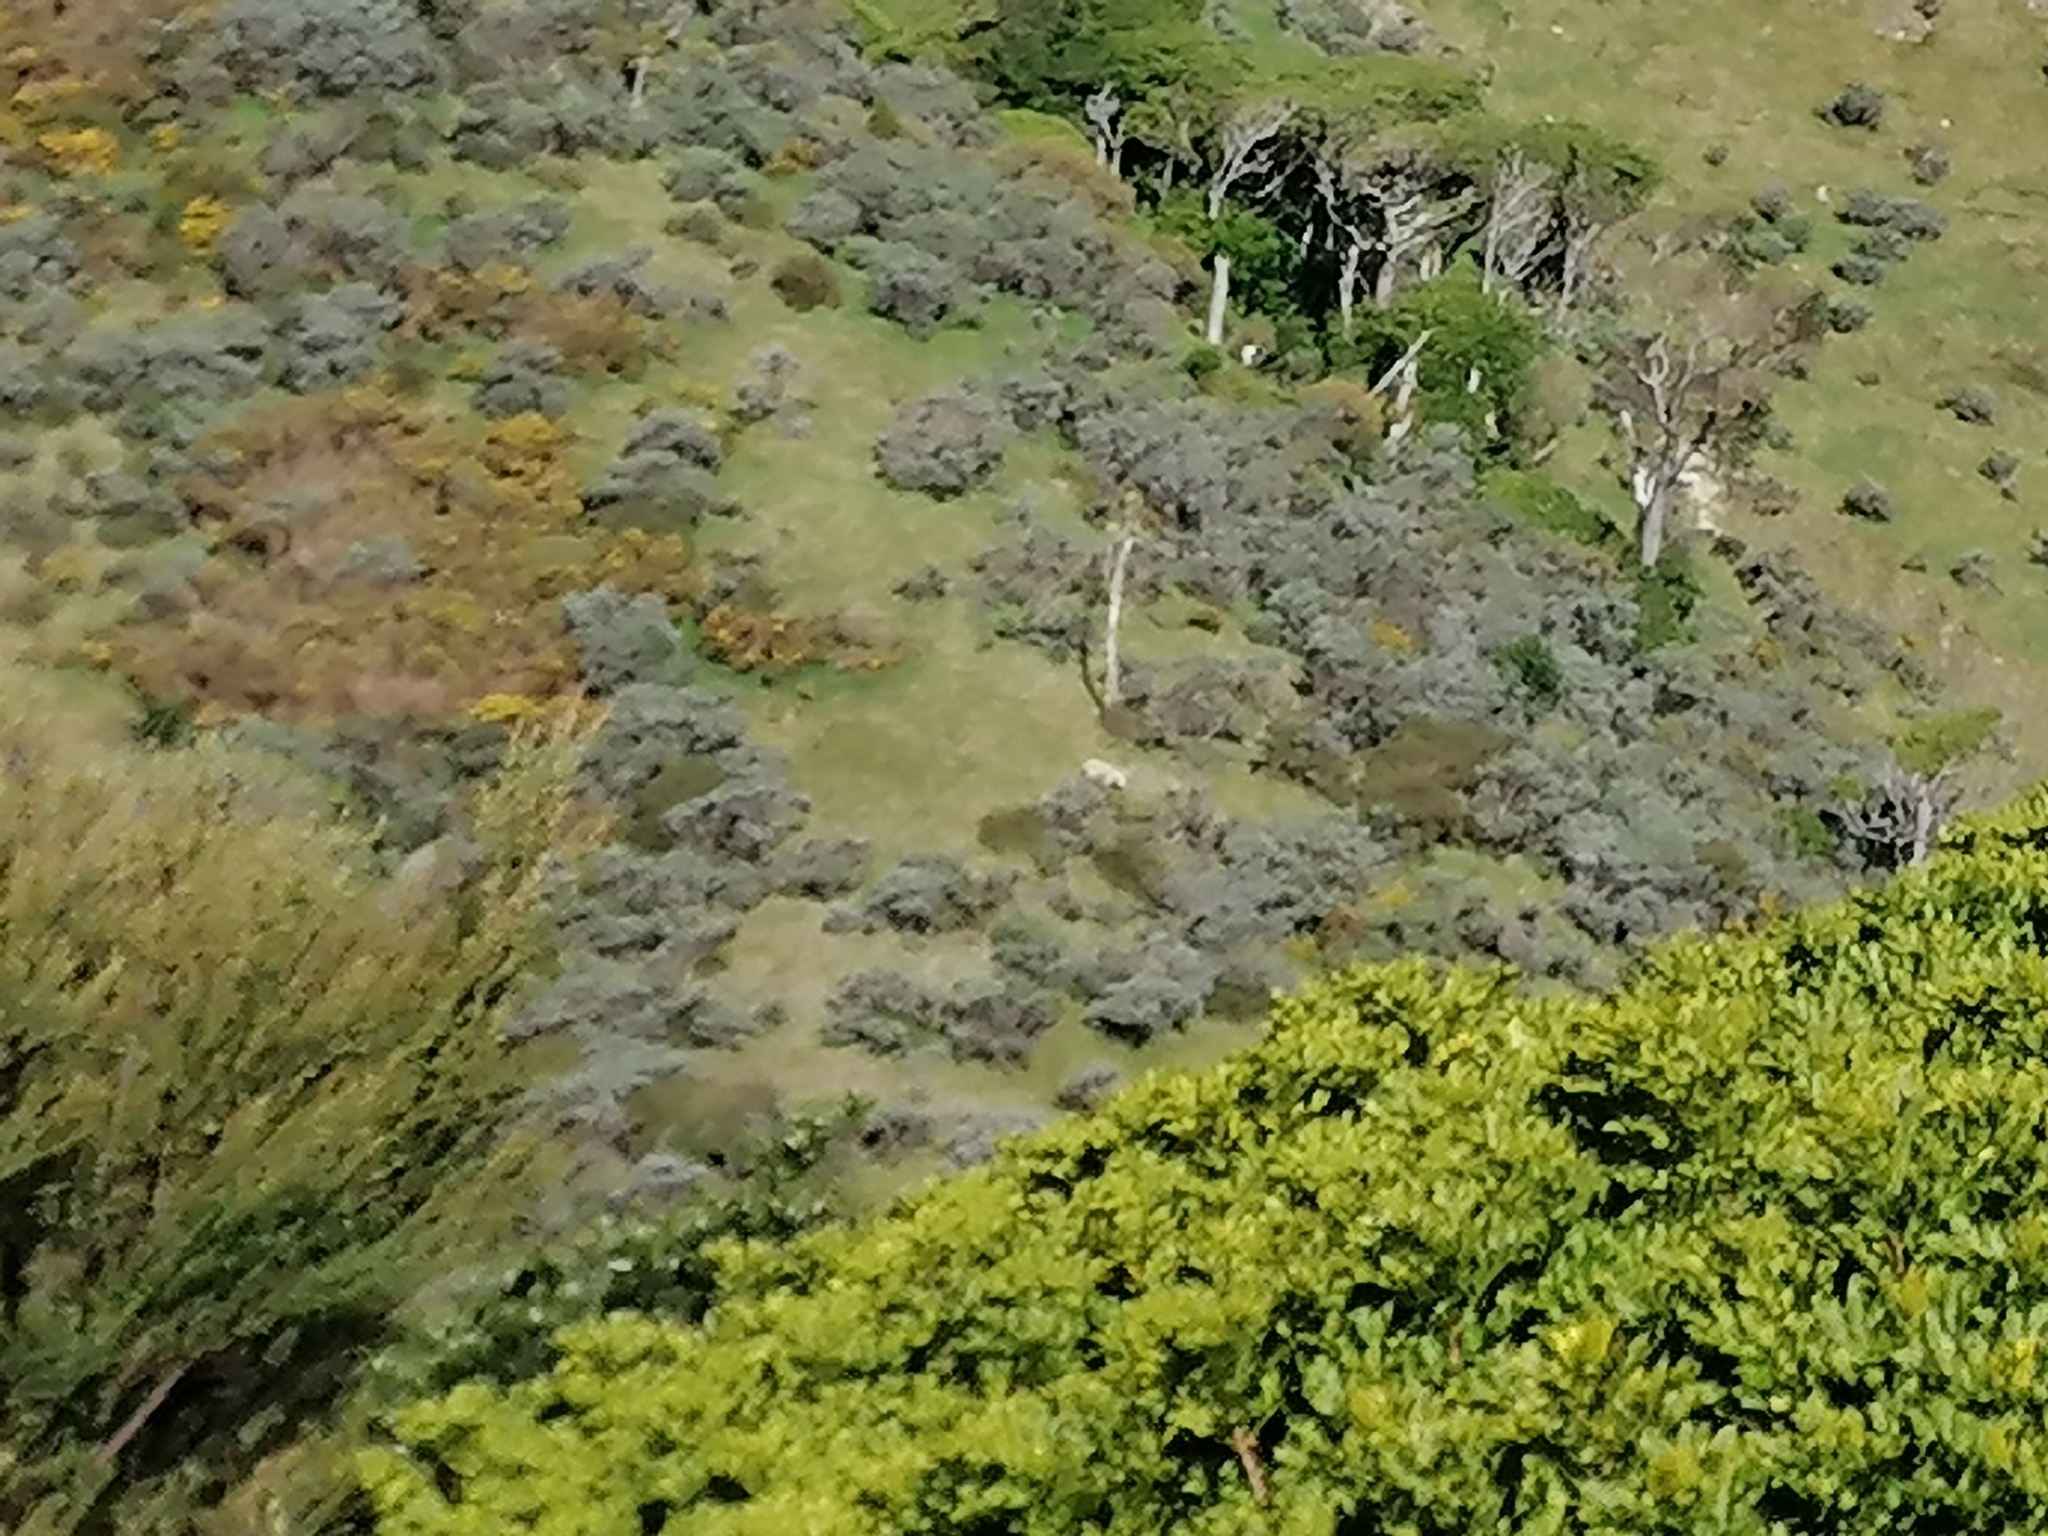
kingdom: Animalia
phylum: Chordata
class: Mammalia
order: Artiodactyla
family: Bovidae
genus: Ovis
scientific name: Ovis aries
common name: Domestic sheep
